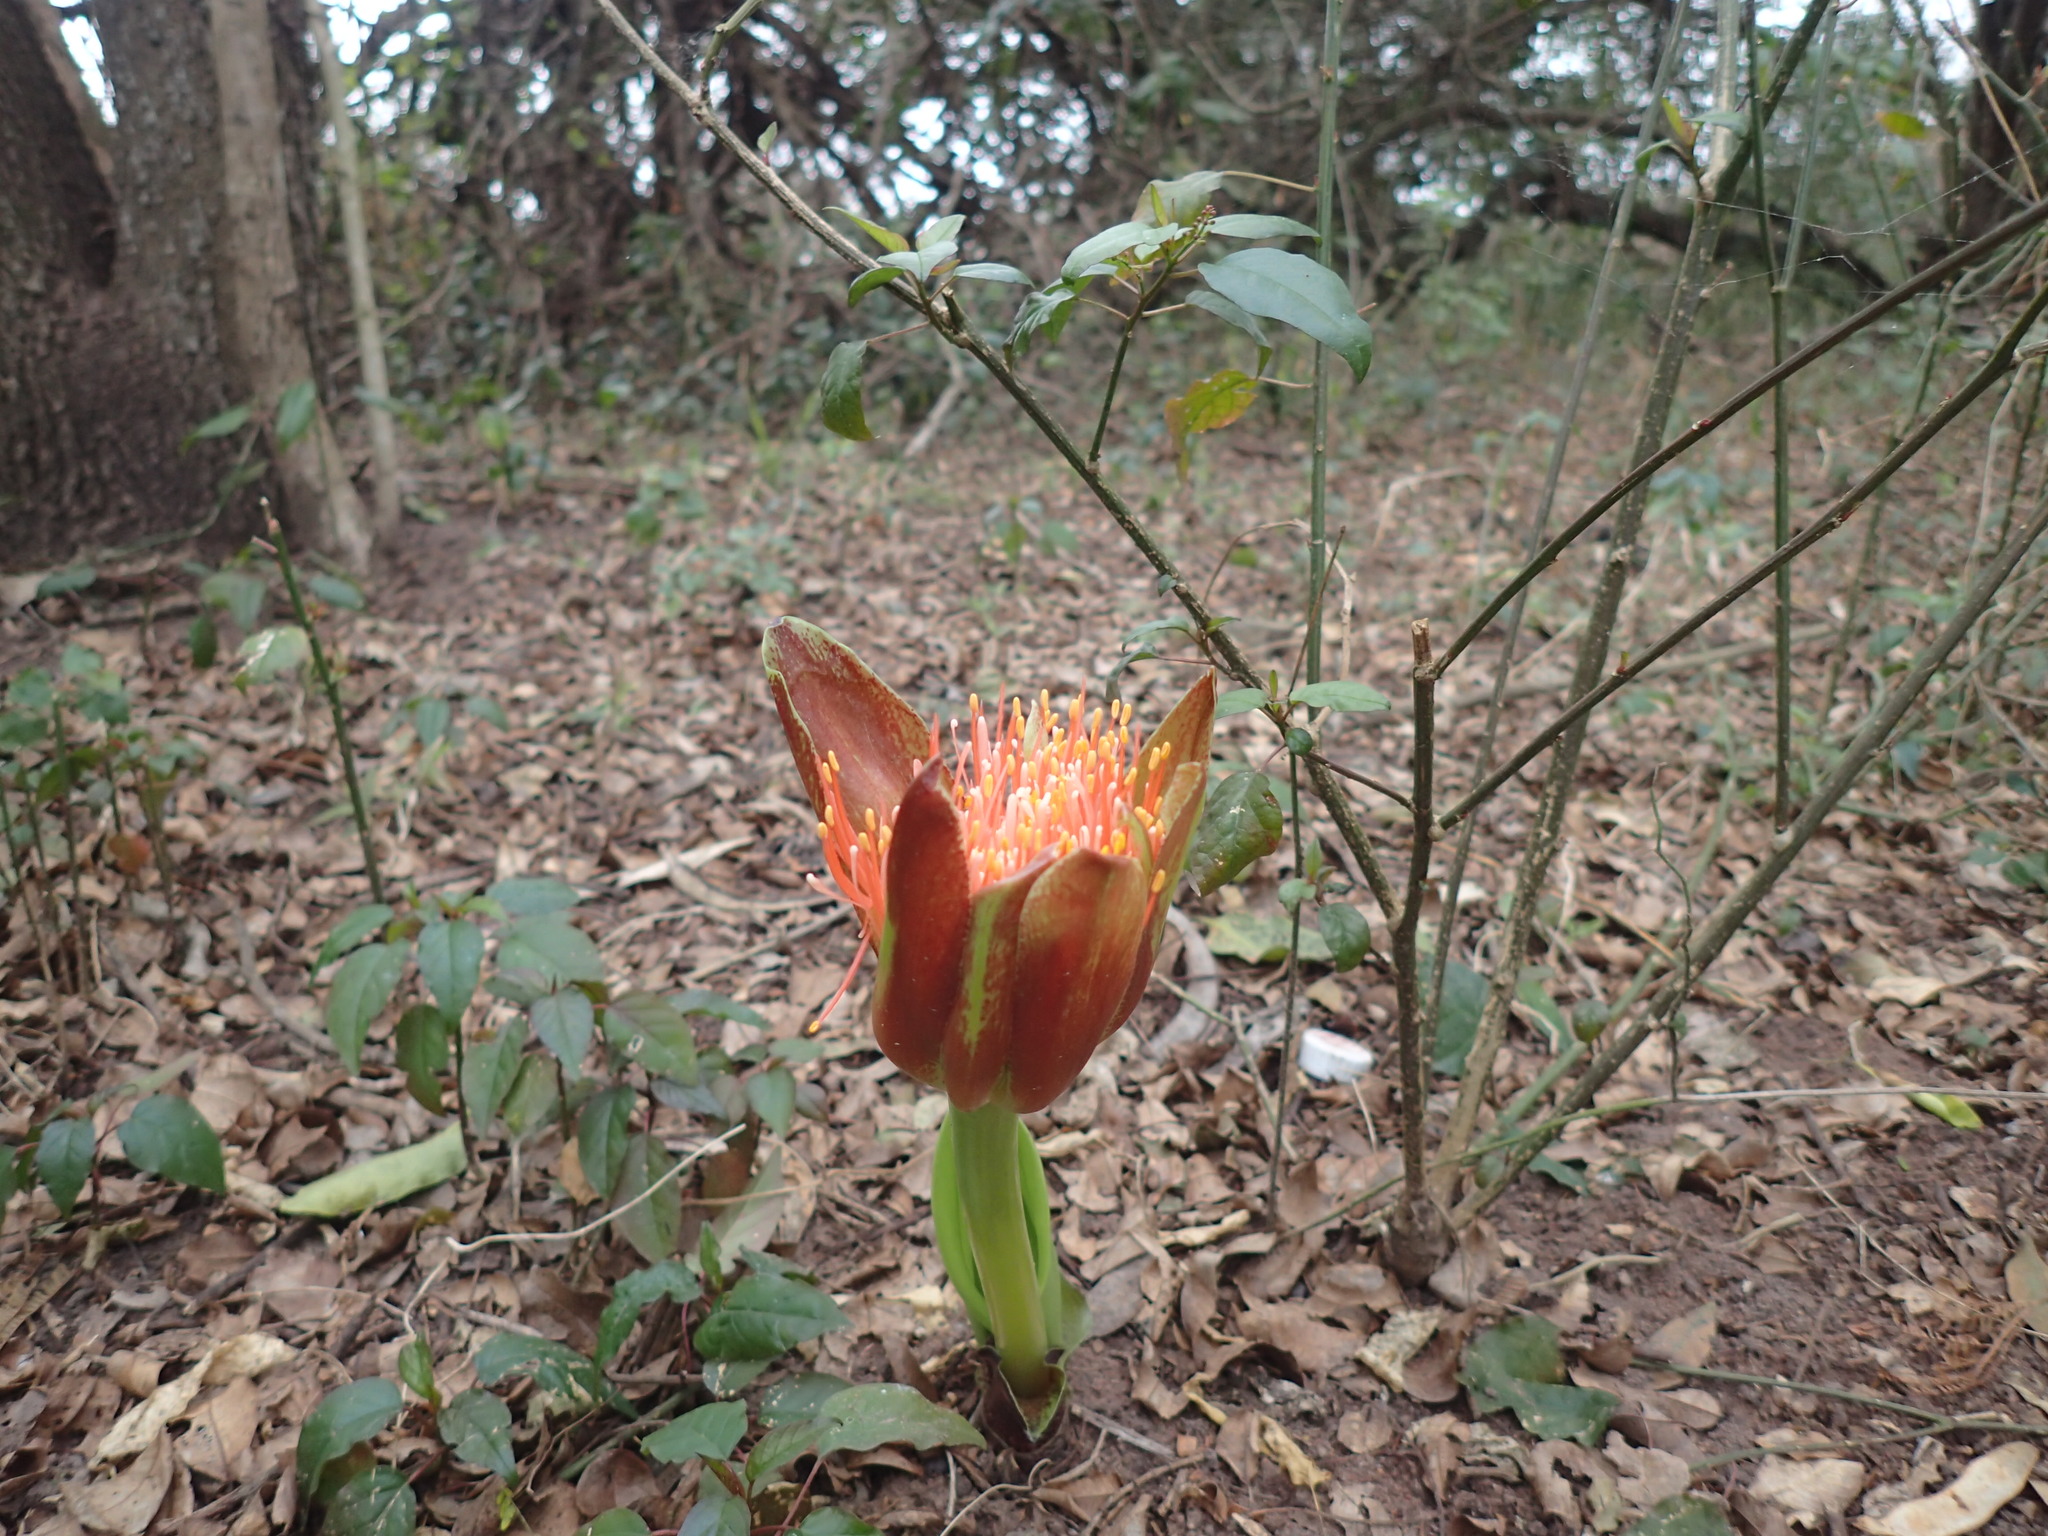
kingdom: Plantae
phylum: Tracheophyta
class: Liliopsida
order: Asparagales
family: Amaryllidaceae
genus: Scadoxus
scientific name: Scadoxus puniceus
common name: Royal-paintbrush
